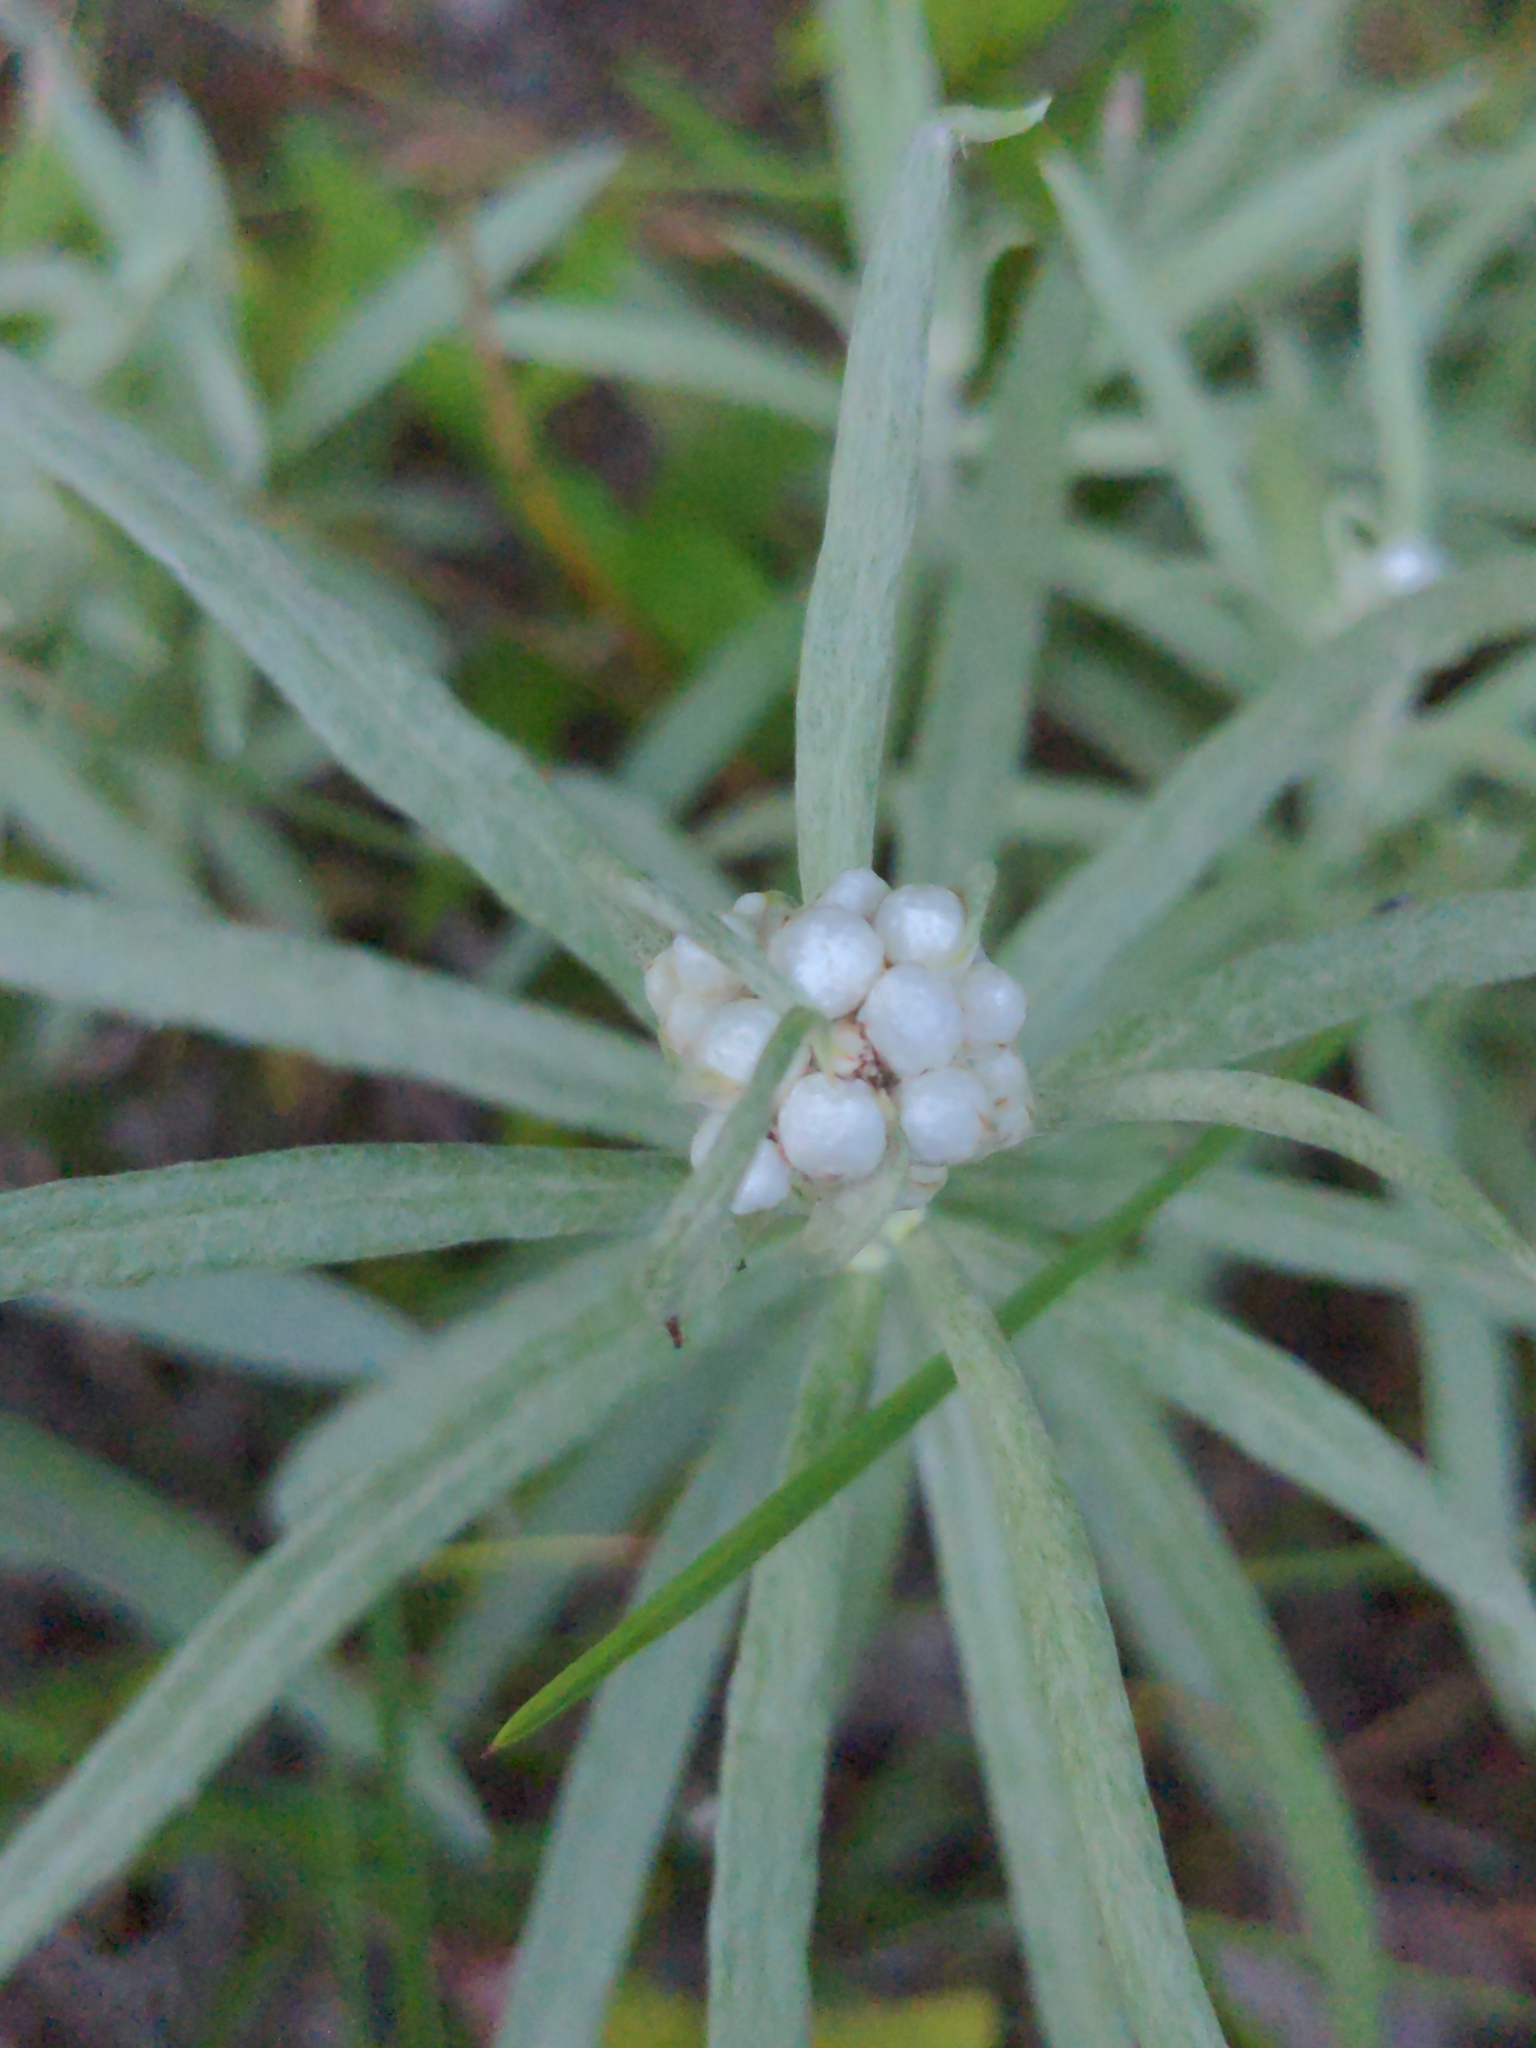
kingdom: Plantae
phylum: Tracheophyta
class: Magnoliopsida
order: Asterales
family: Asteraceae
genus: Anaphalis
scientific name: Anaphalis margaritacea
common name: Pearly everlasting
